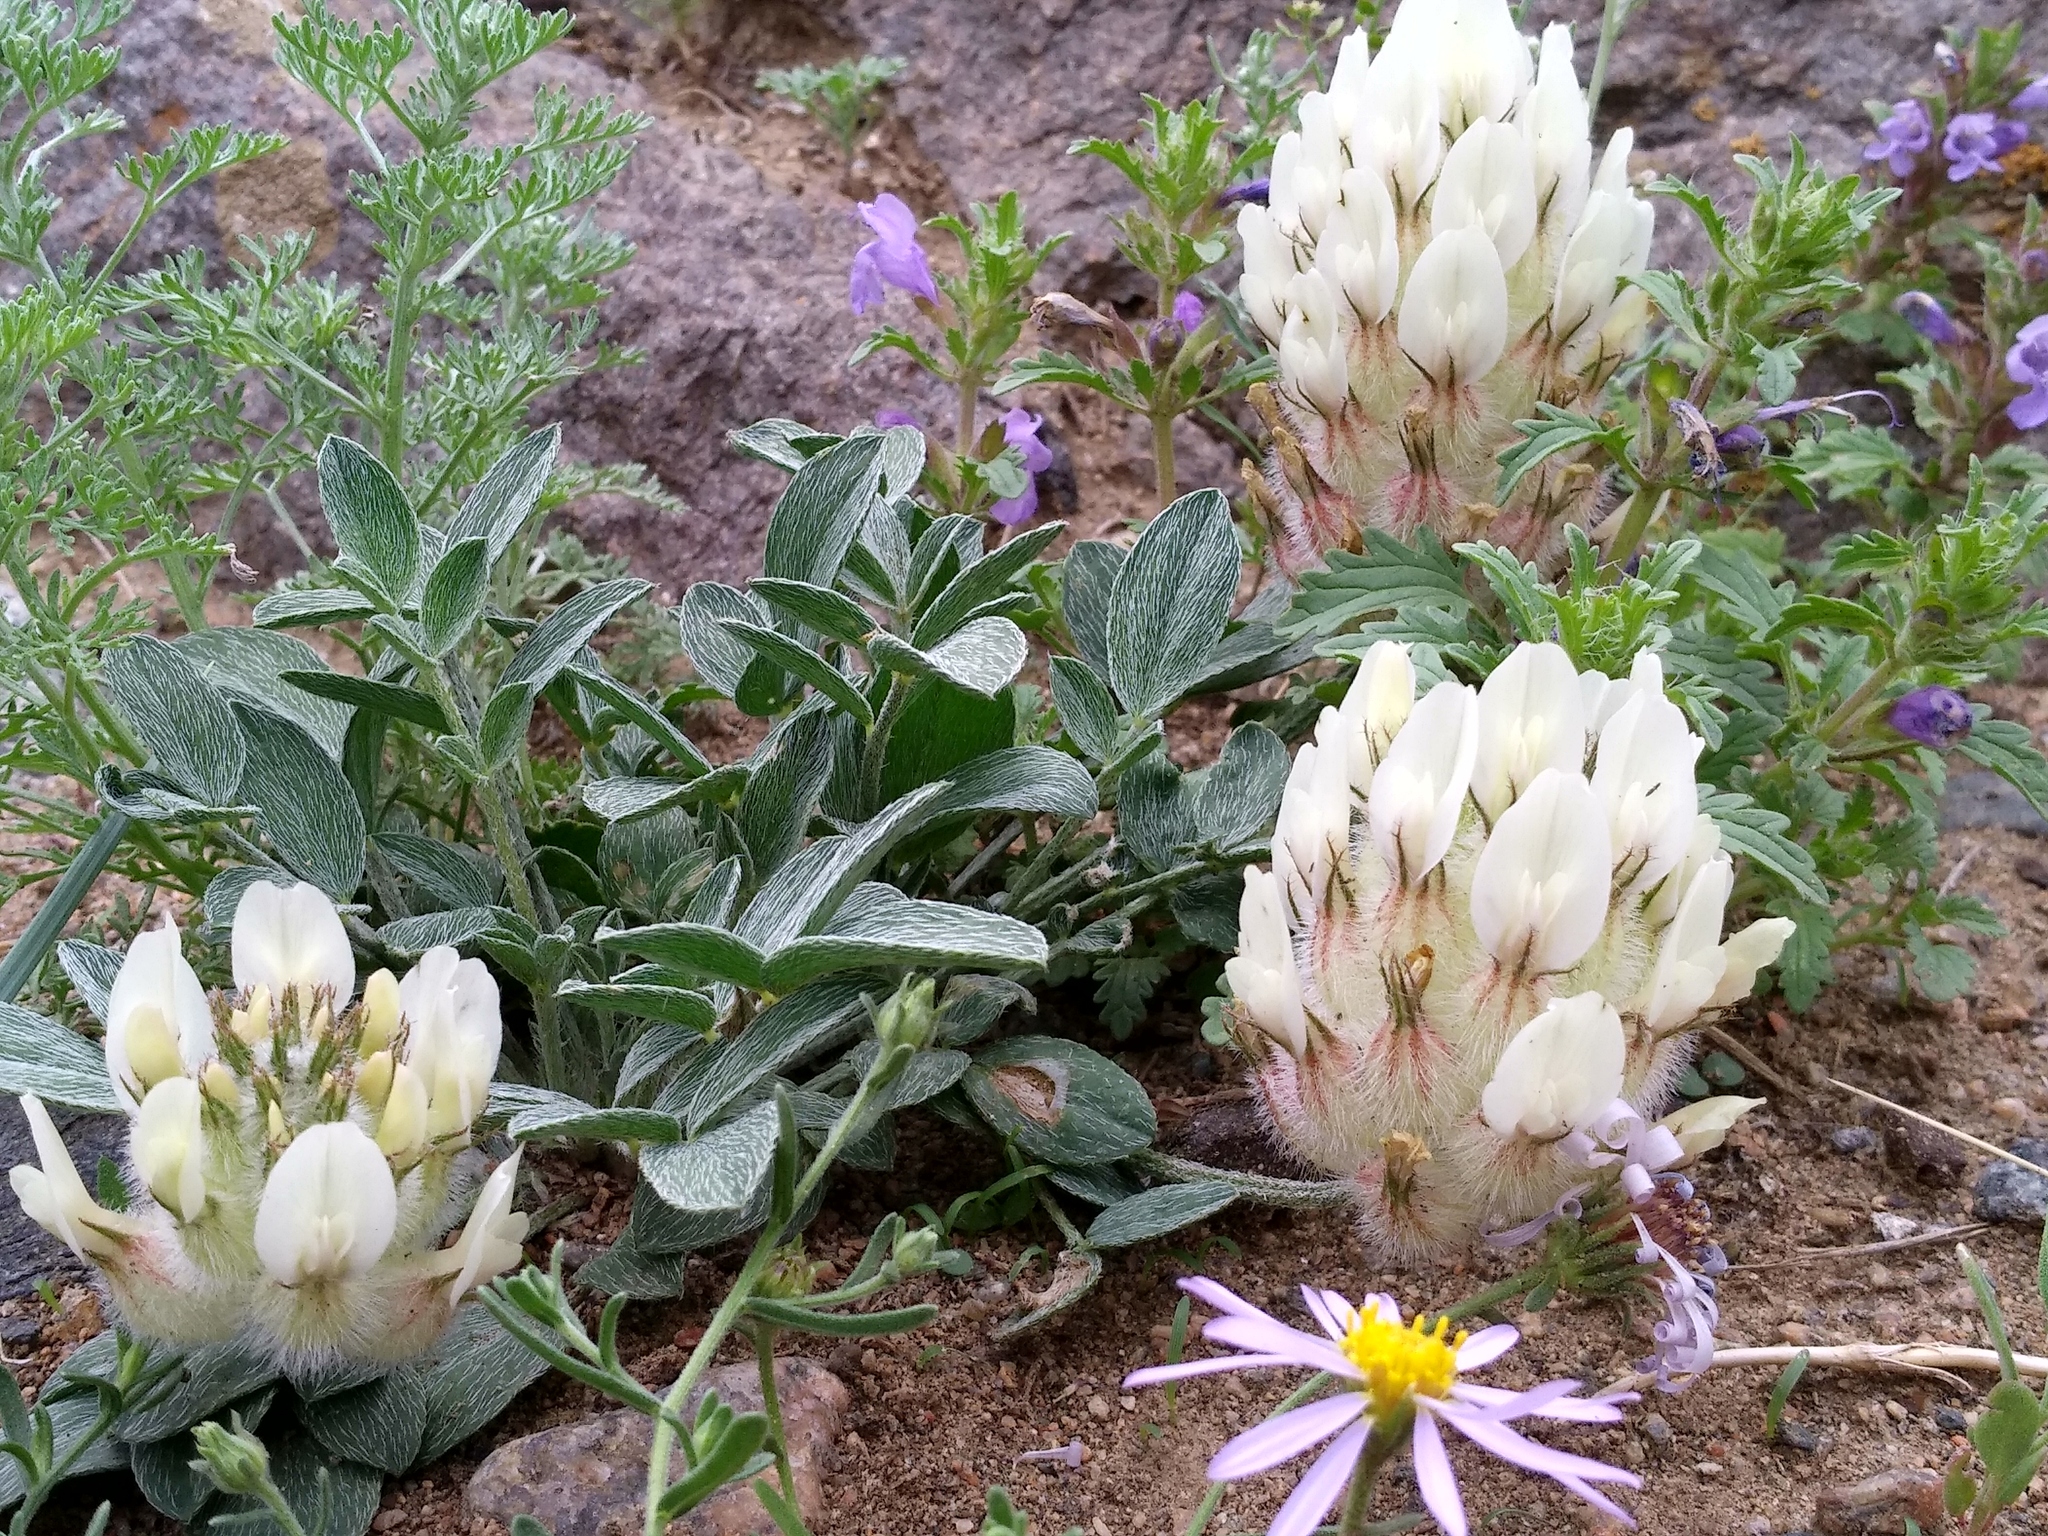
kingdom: Plantae
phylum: Tracheophyta
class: Magnoliopsida
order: Fabales
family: Fabaceae
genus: Astragalus
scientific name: Astragalus lupulinus
